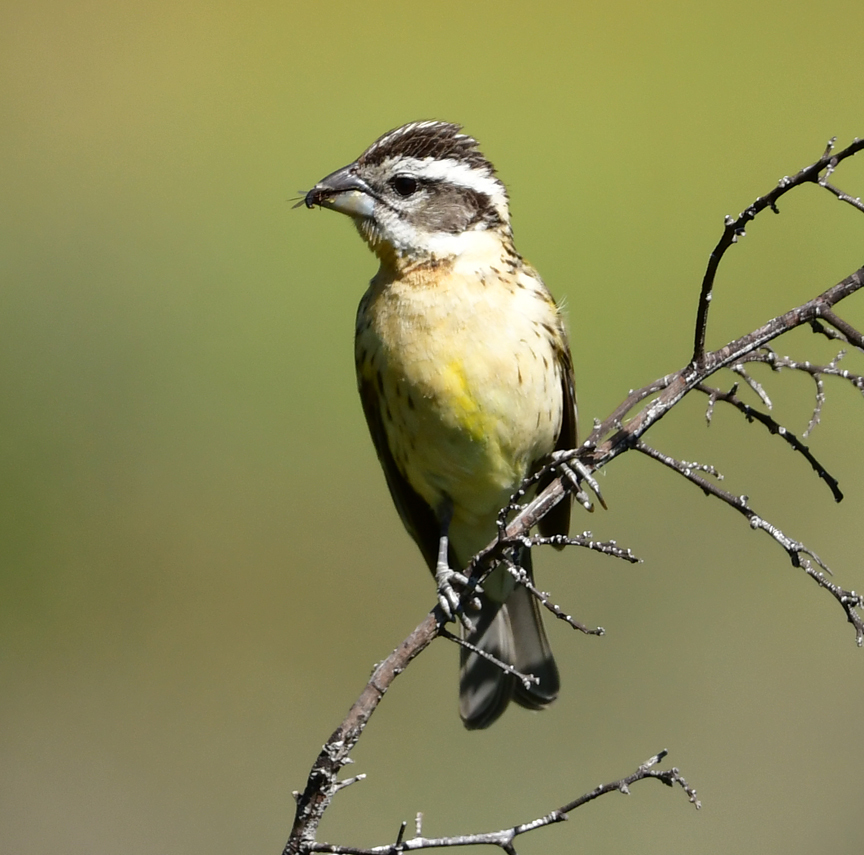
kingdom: Animalia
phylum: Chordata
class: Aves
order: Passeriformes
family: Cardinalidae
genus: Pheucticus
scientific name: Pheucticus melanocephalus
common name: Black-headed grosbeak
